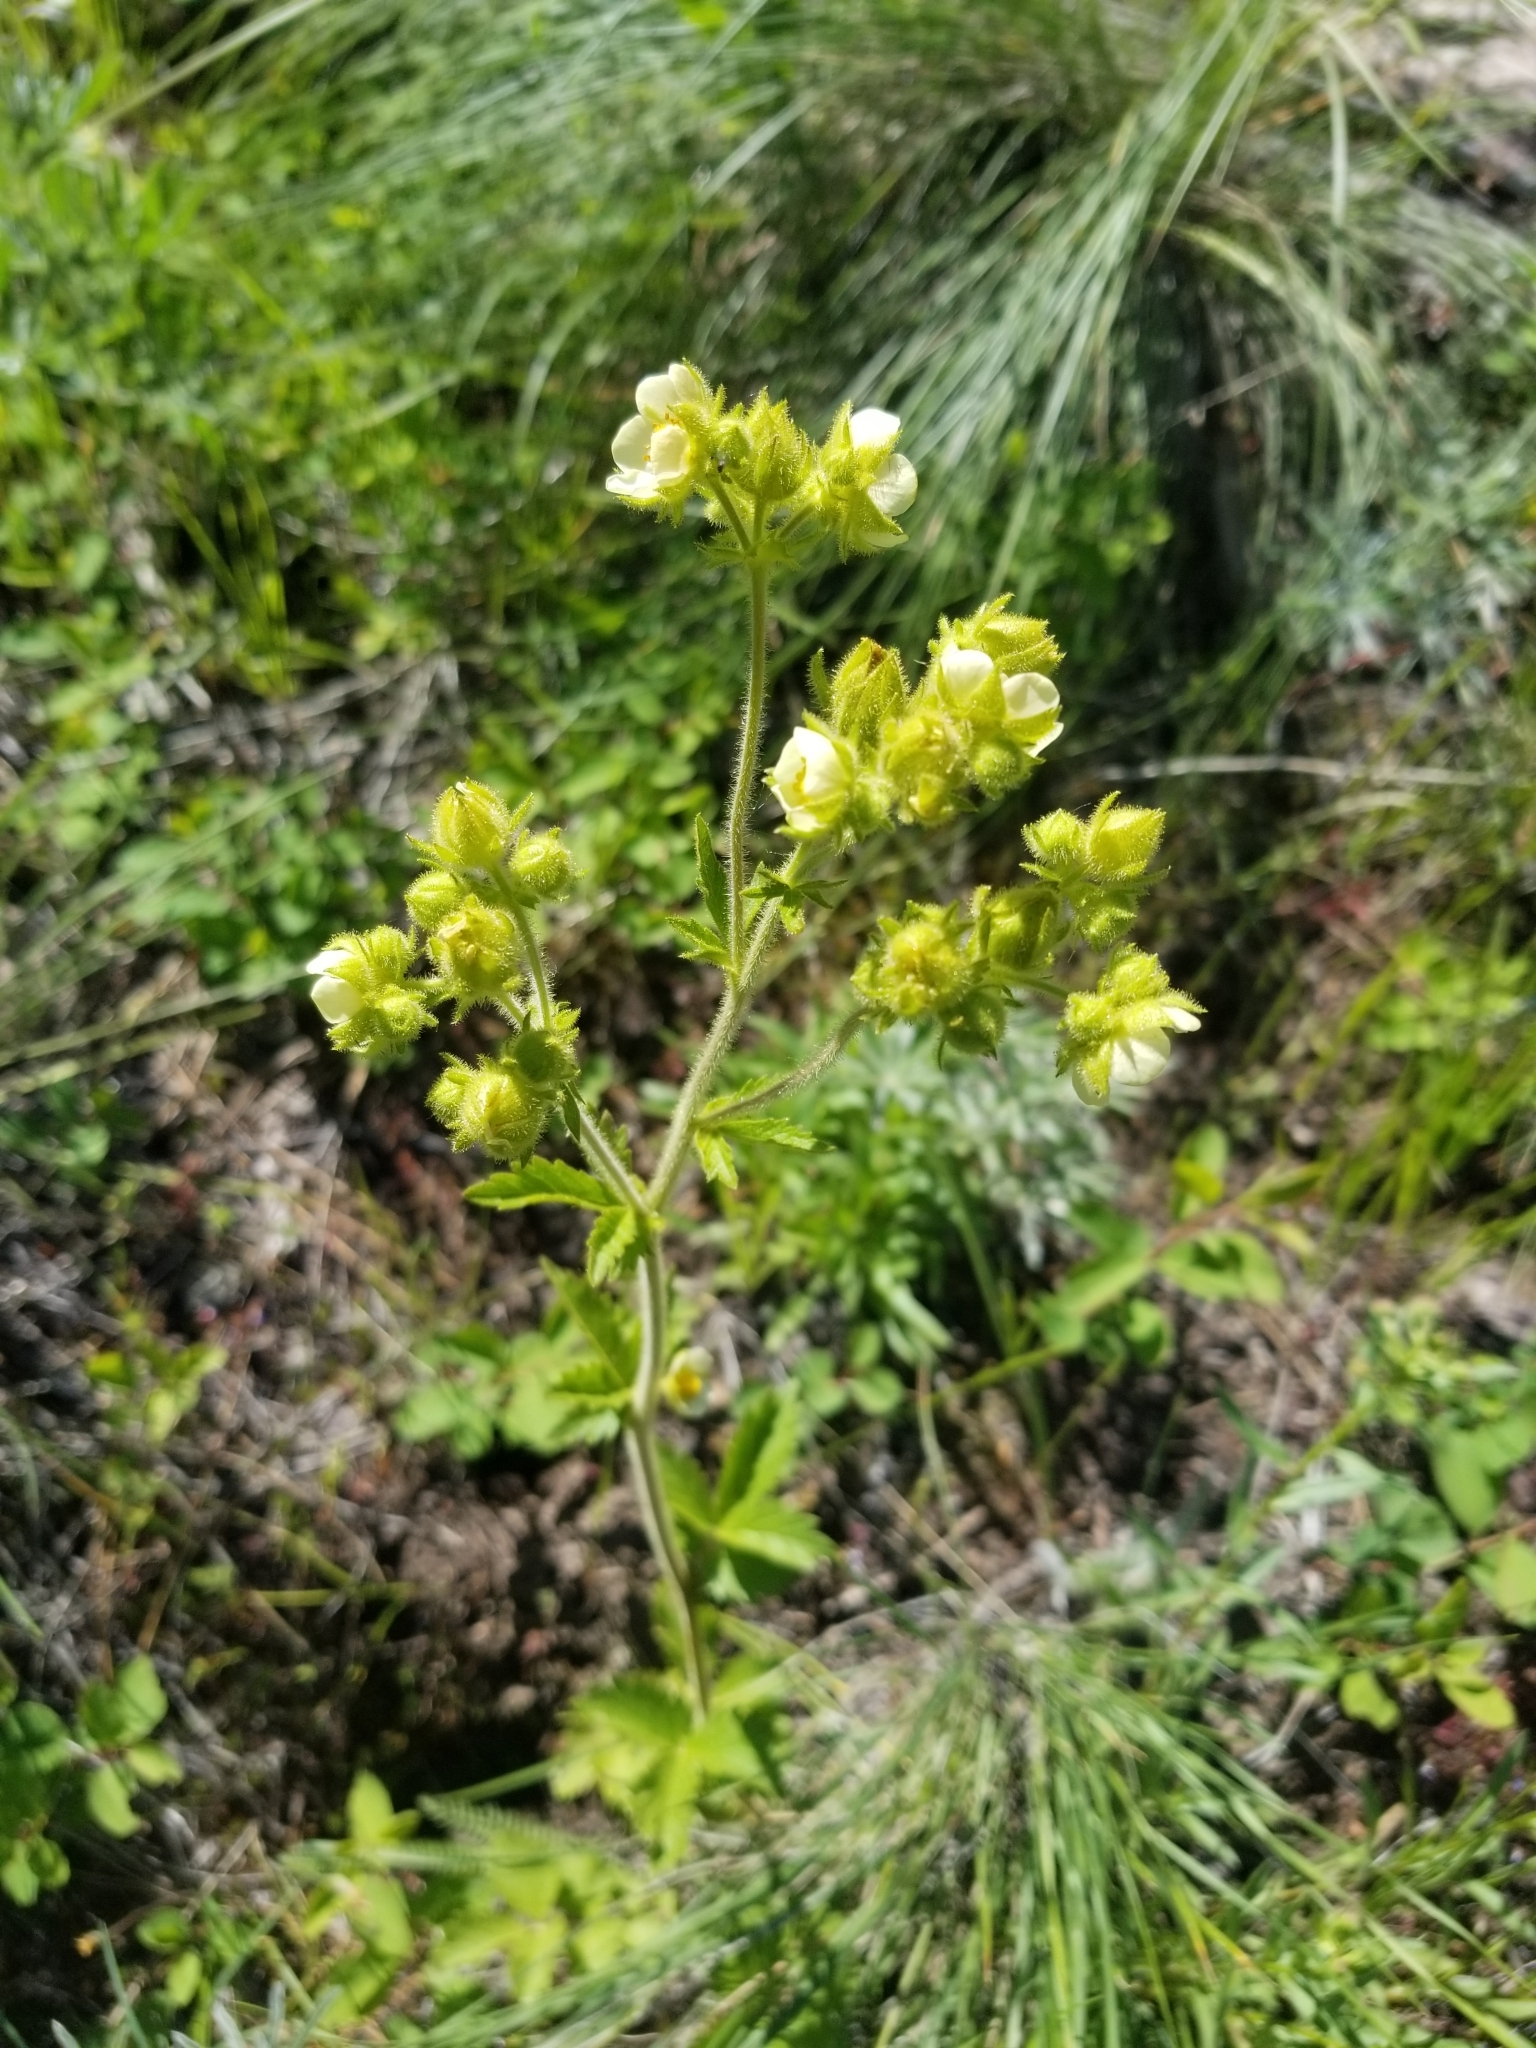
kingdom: Plantae
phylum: Tracheophyta
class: Magnoliopsida
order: Rosales
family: Rosaceae
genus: Drymocallis
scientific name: Drymocallis arguta
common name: Tall cinquefoil
